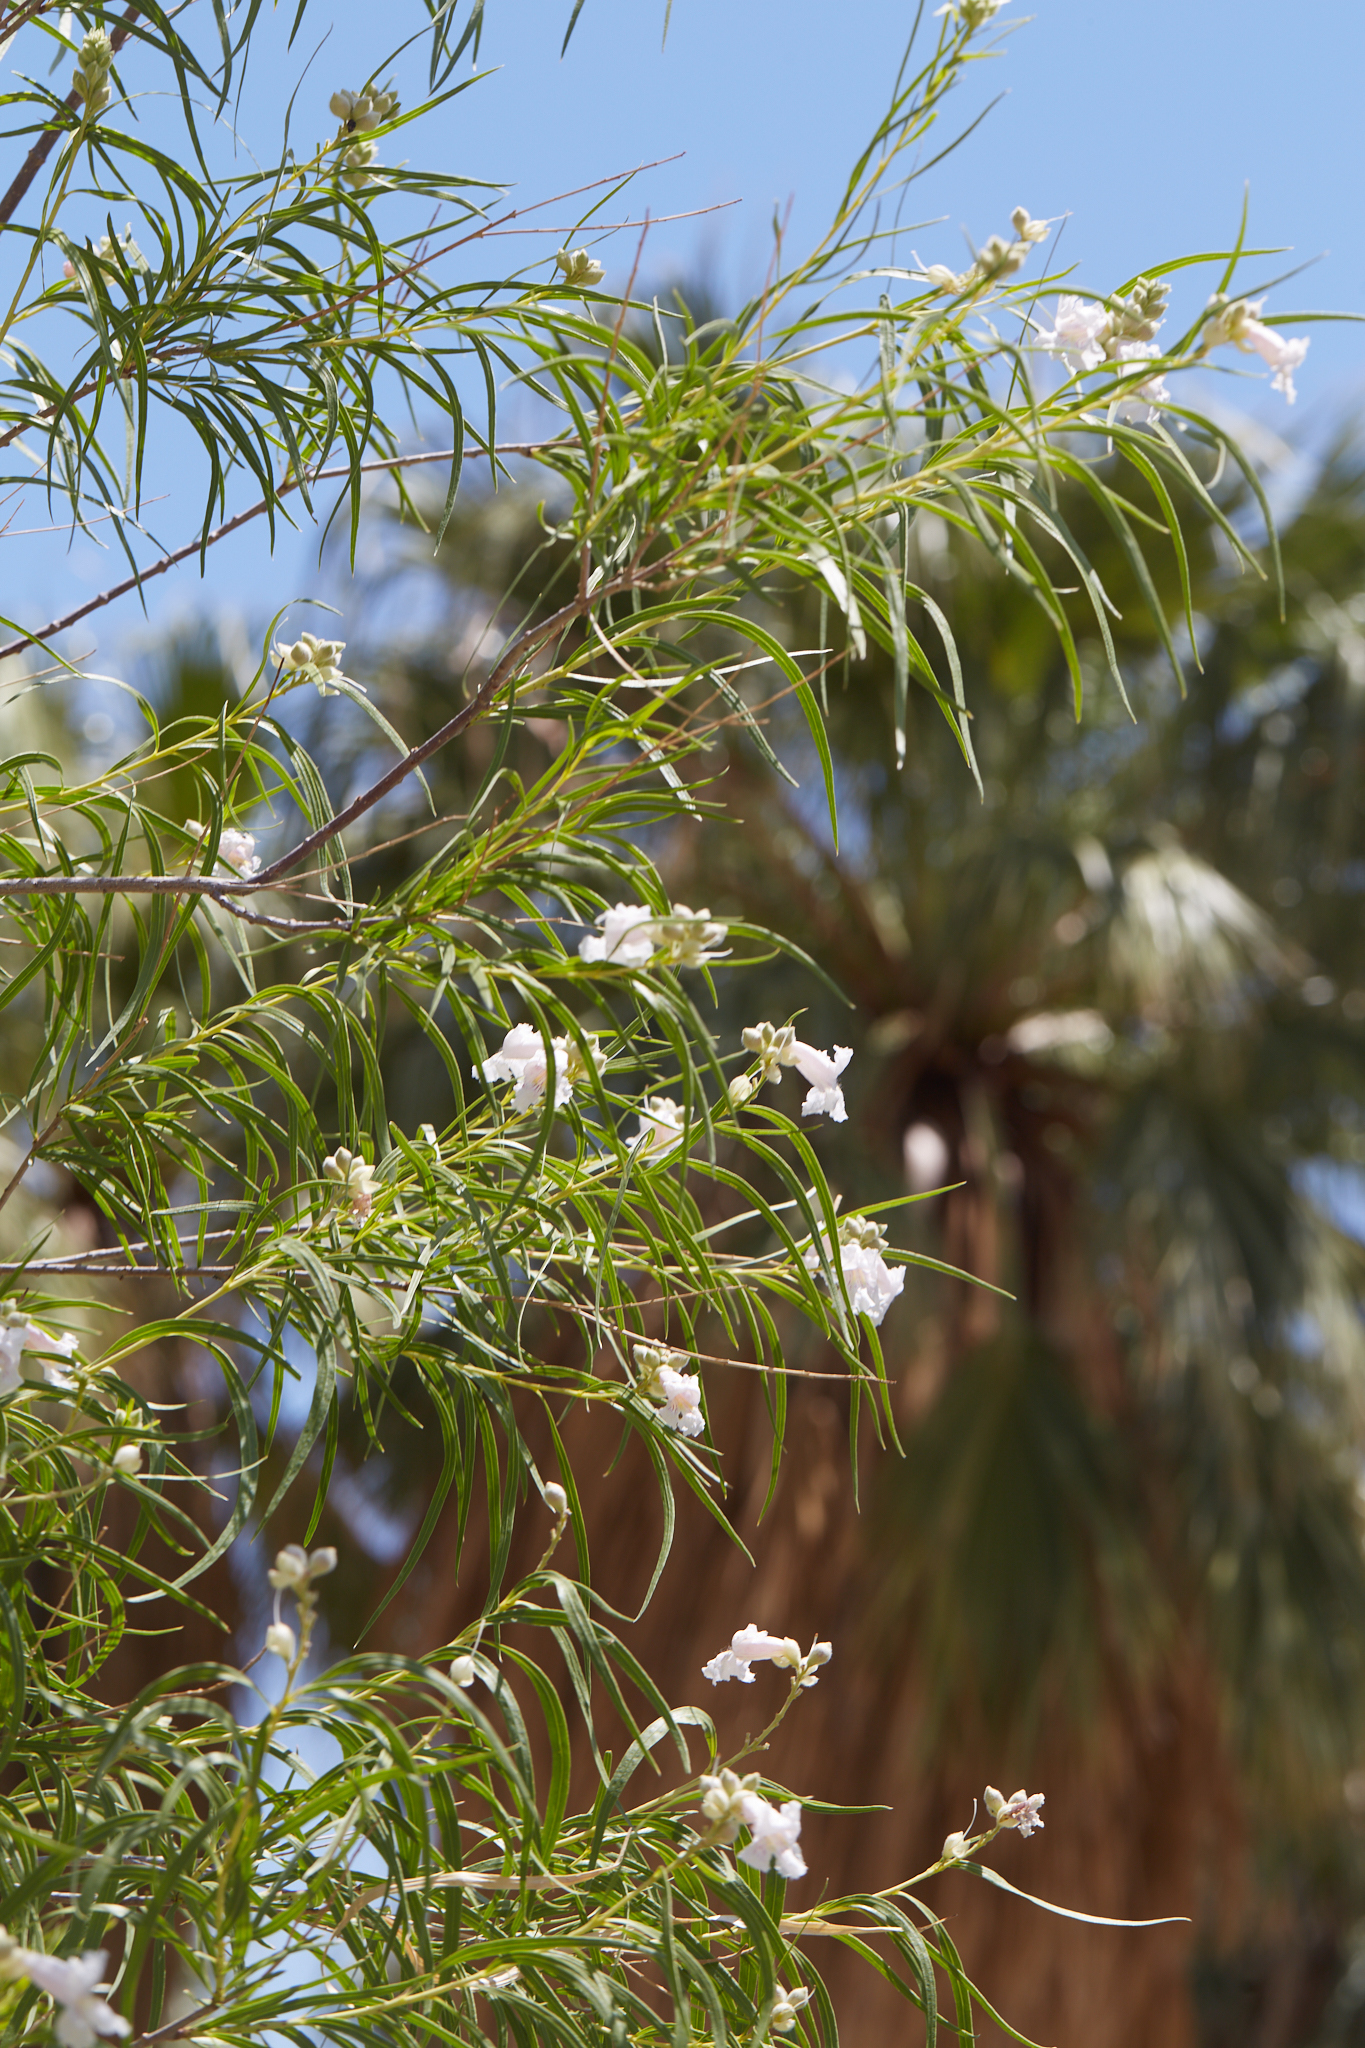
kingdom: Plantae
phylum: Tracheophyta
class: Magnoliopsida
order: Lamiales
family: Bignoniaceae
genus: Chilopsis
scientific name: Chilopsis linearis
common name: Desert-willow
